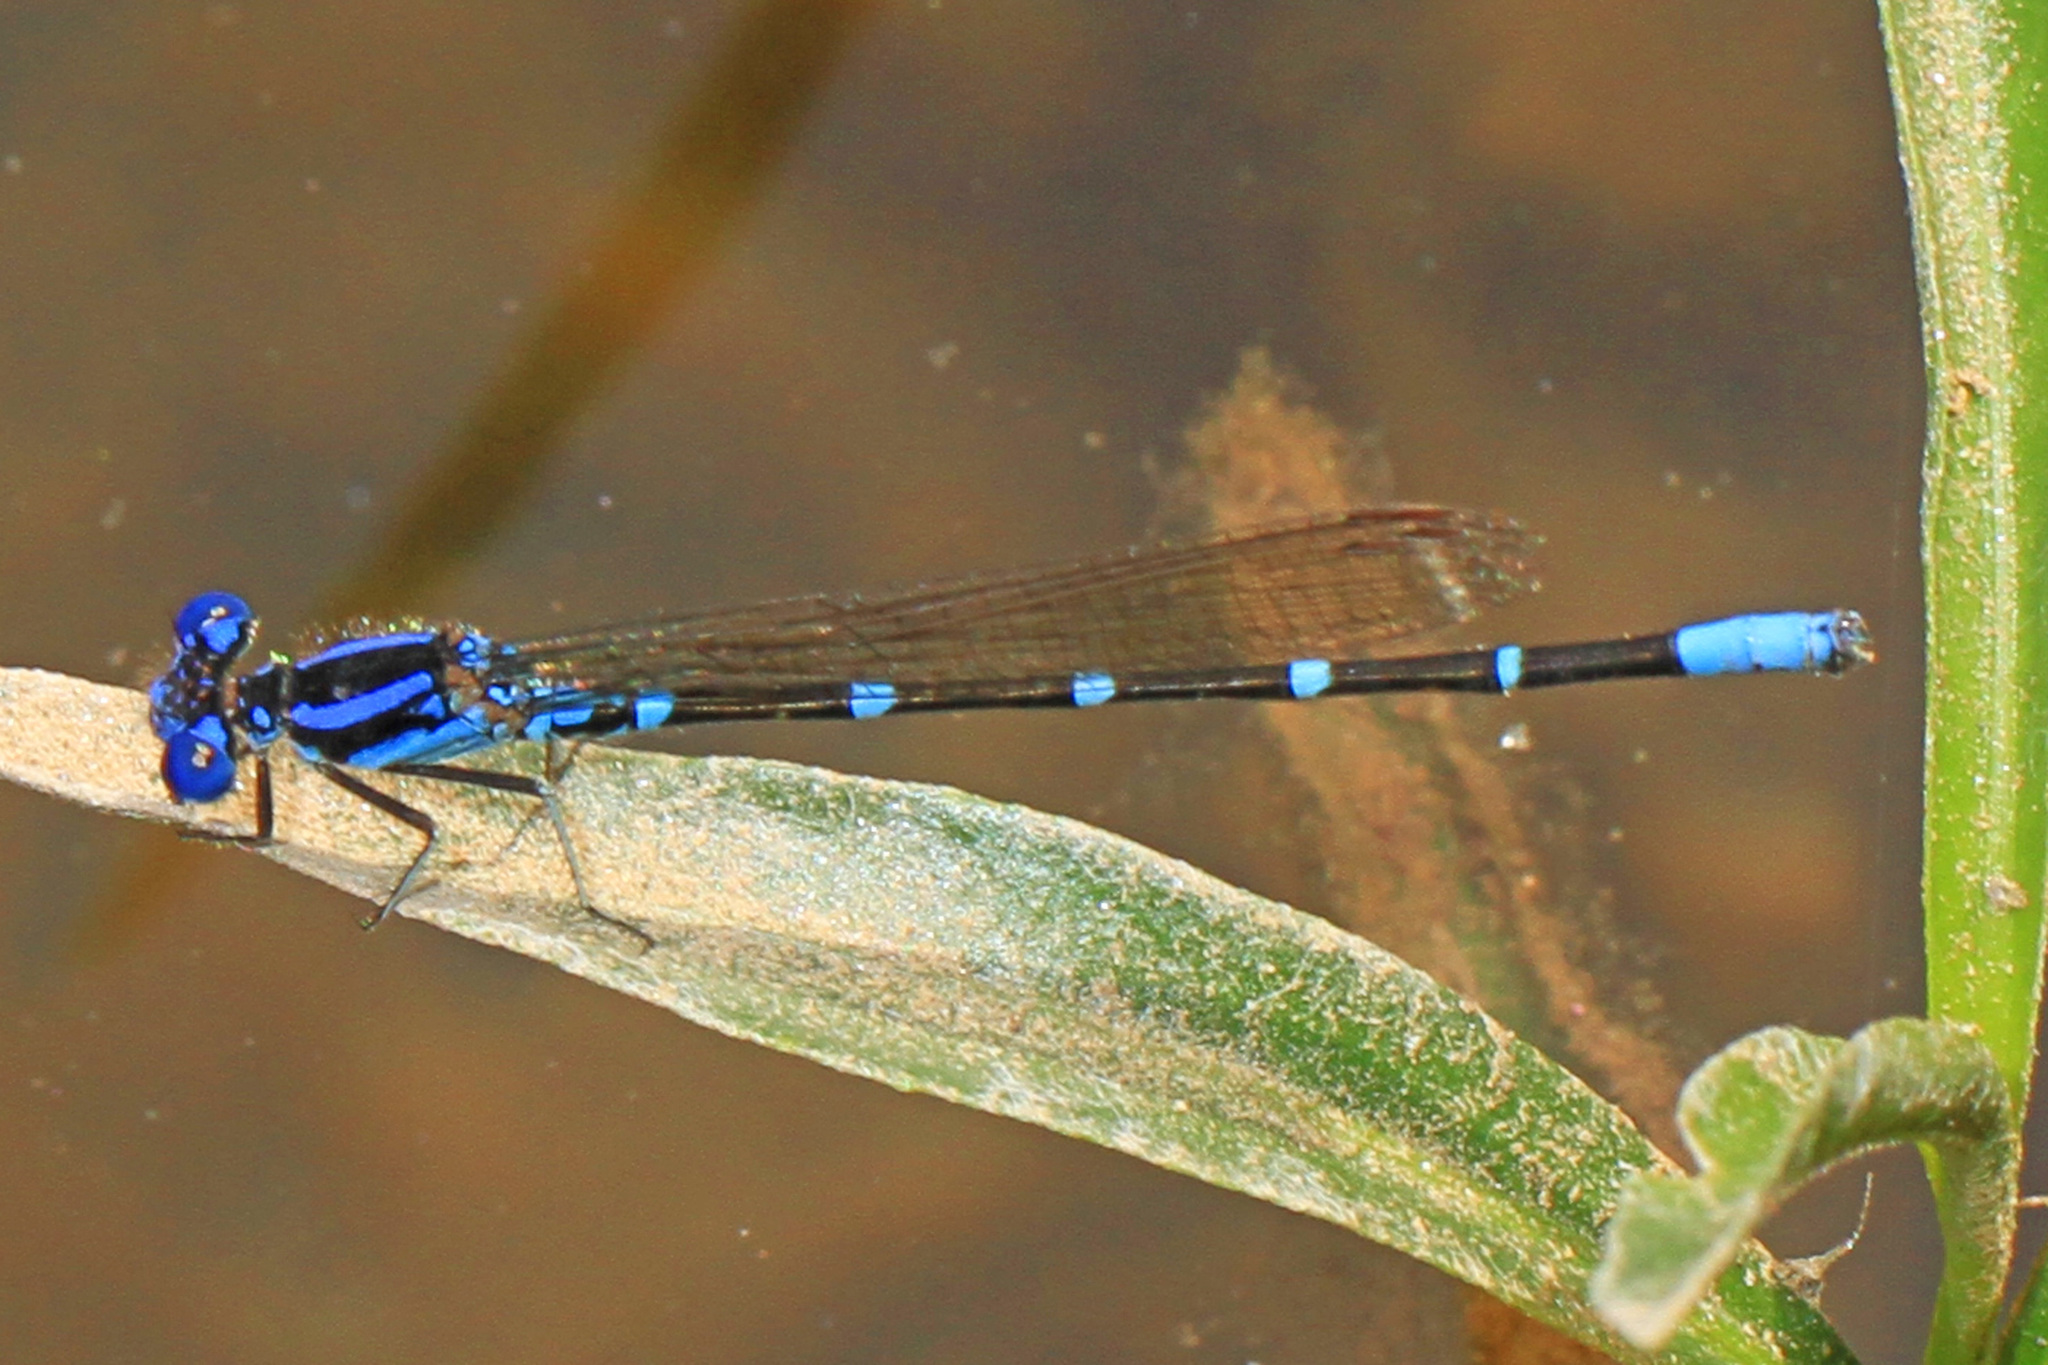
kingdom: Animalia
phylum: Arthropoda
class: Insecta
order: Odonata
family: Coenagrionidae
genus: Argia
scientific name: Argia sedula
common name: Blue-ringed dancer
